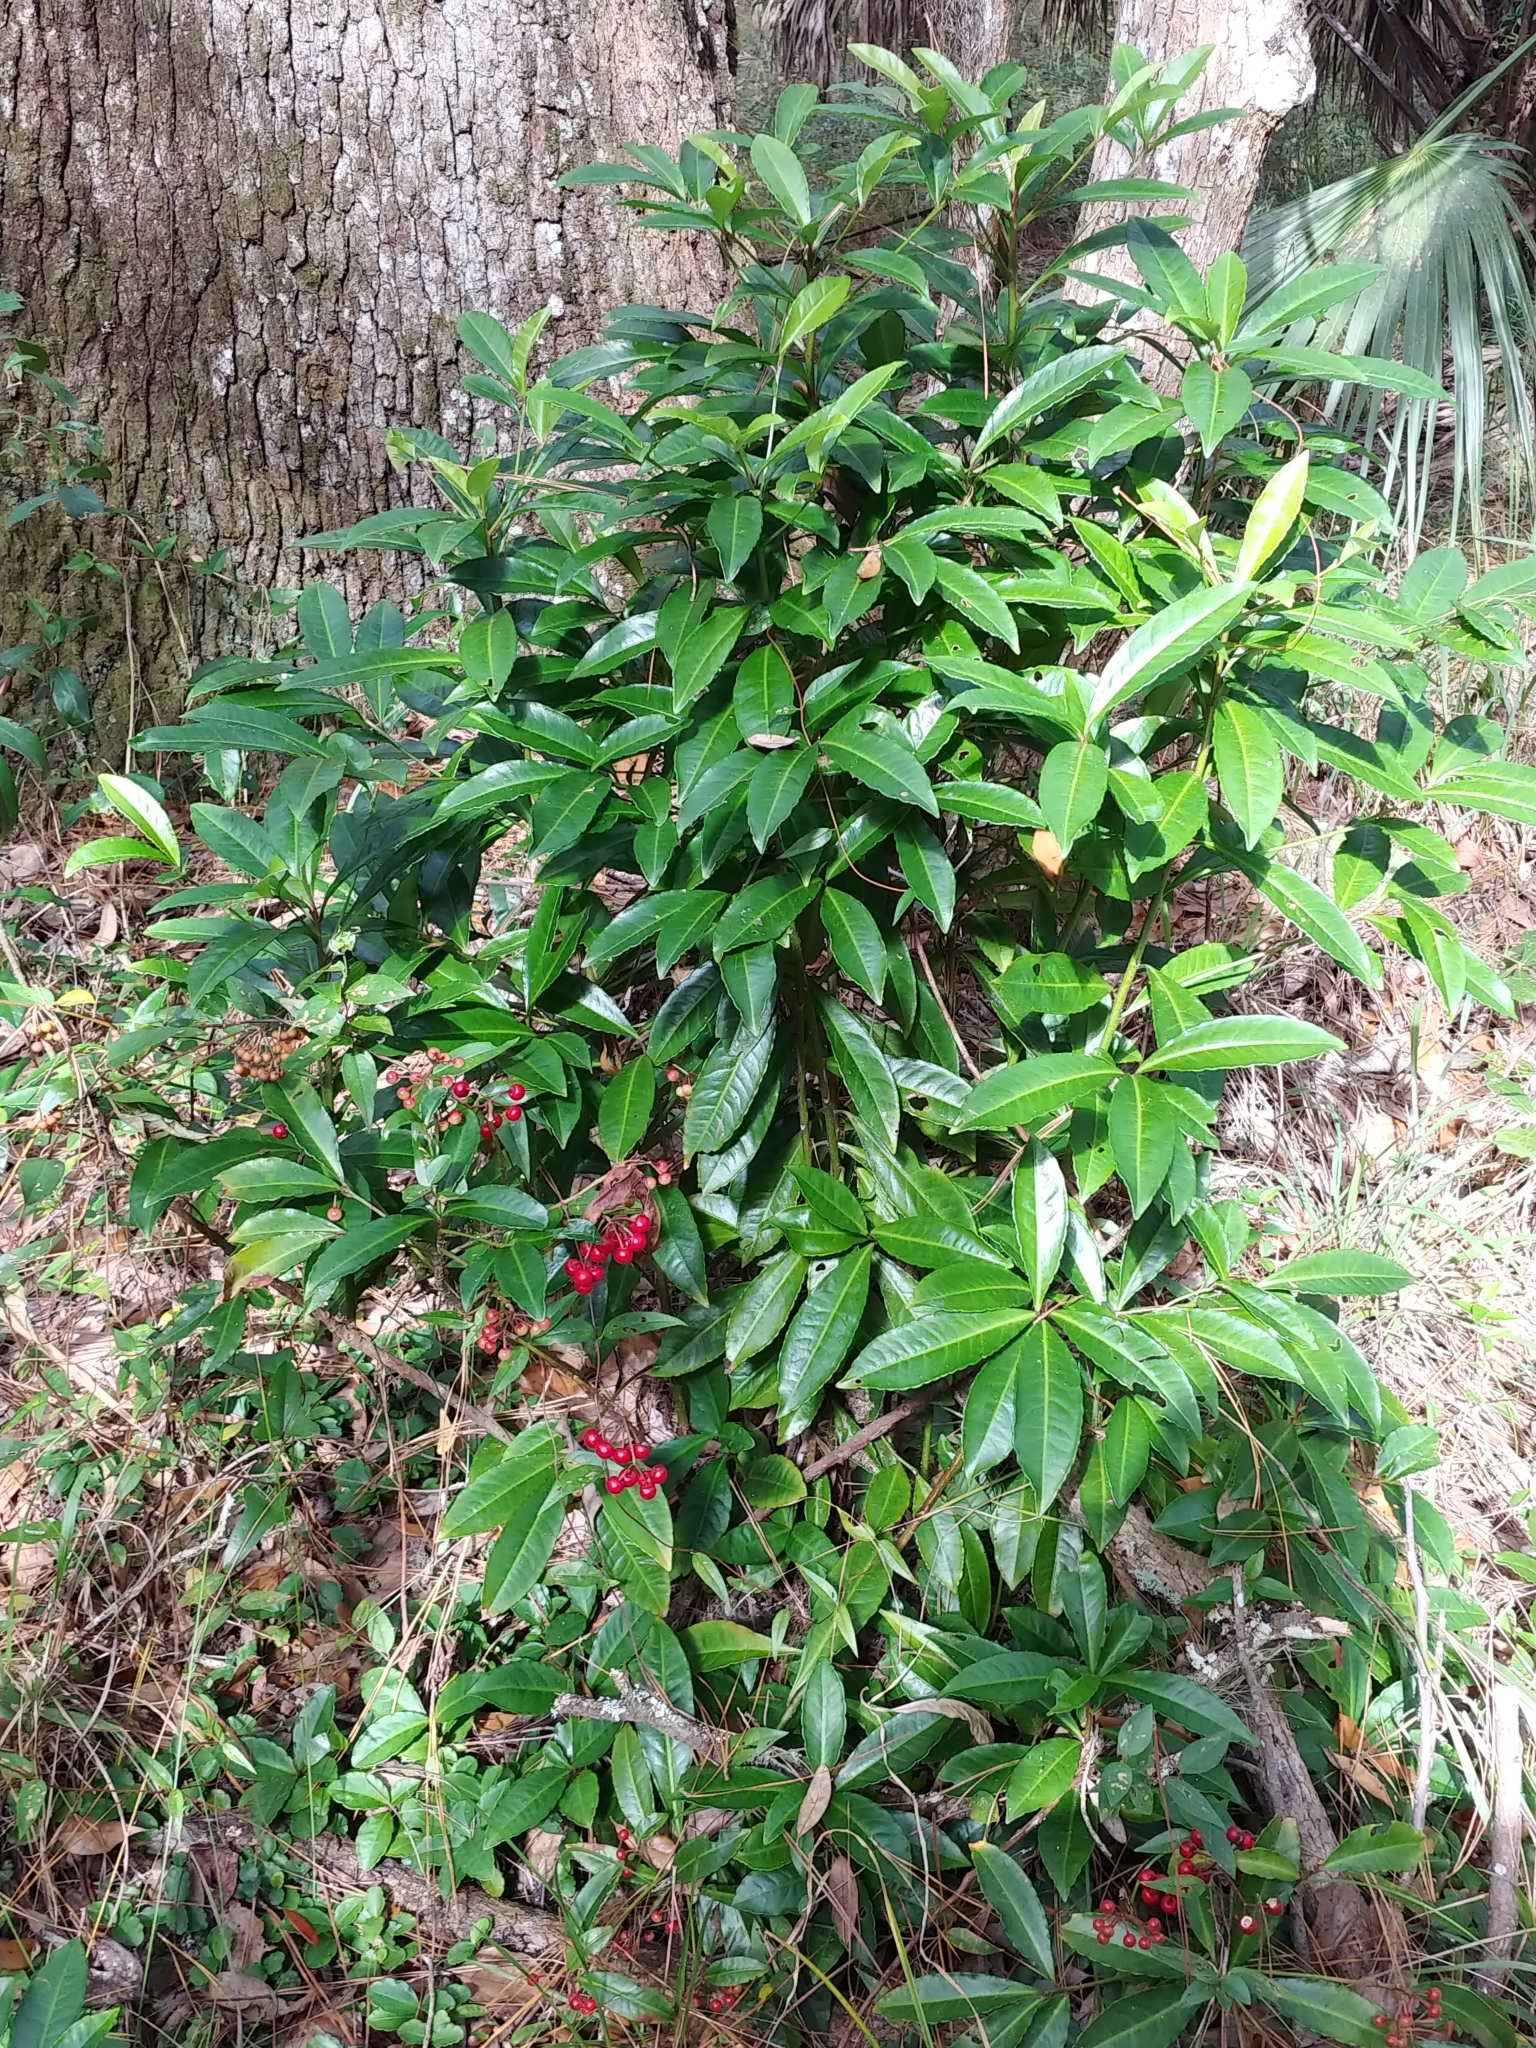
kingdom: Plantae
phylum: Tracheophyta
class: Magnoliopsida
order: Ericales
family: Primulaceae
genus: Ardisia
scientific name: Ardisia crenata
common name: Hen's eyes
